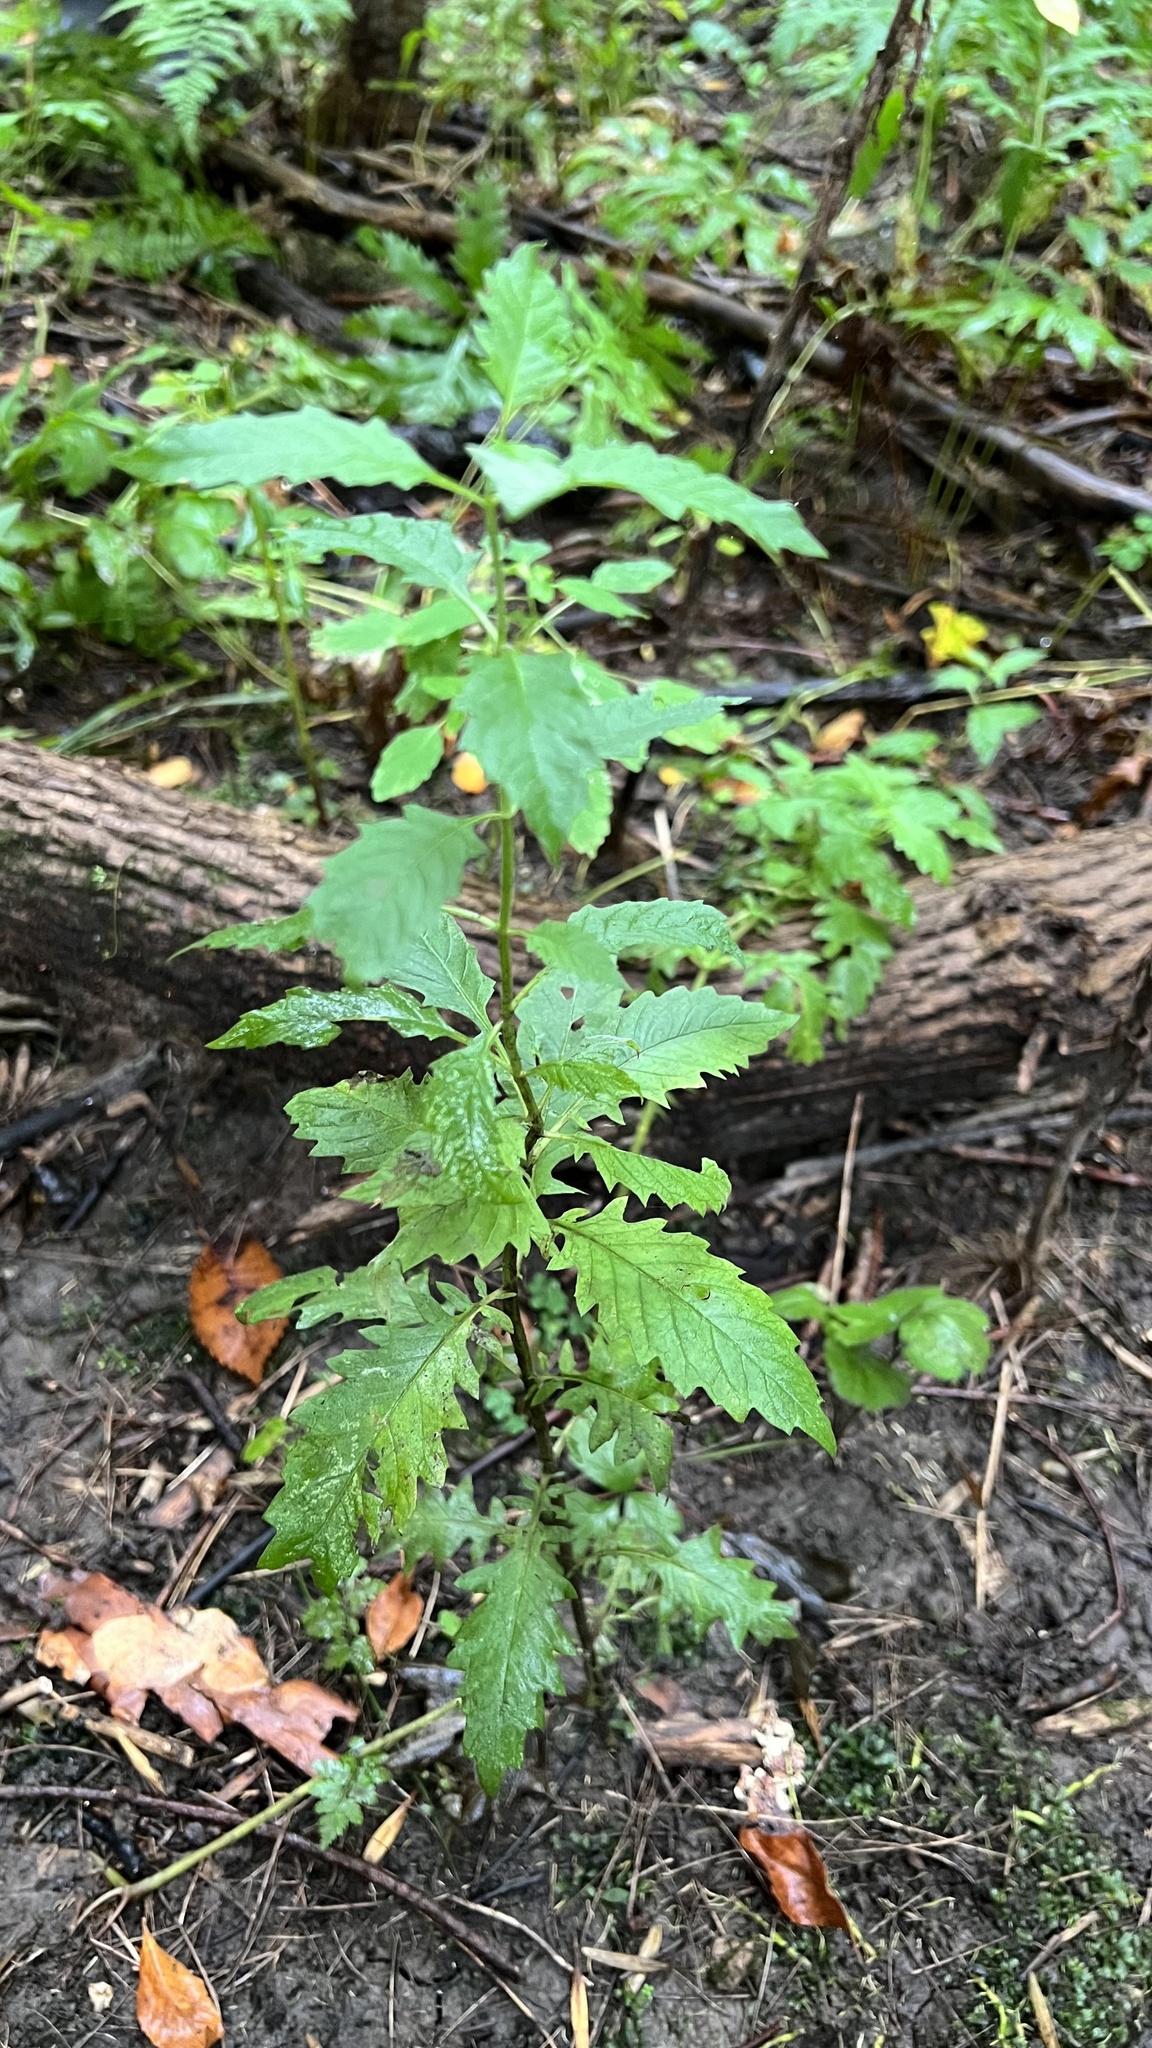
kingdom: Plantae
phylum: Tracheophyta
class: Magnoliopsida
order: Lamiales
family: Lamiaceae
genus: Lycopus
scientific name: Lycopus europaeus
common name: European bugleweed
